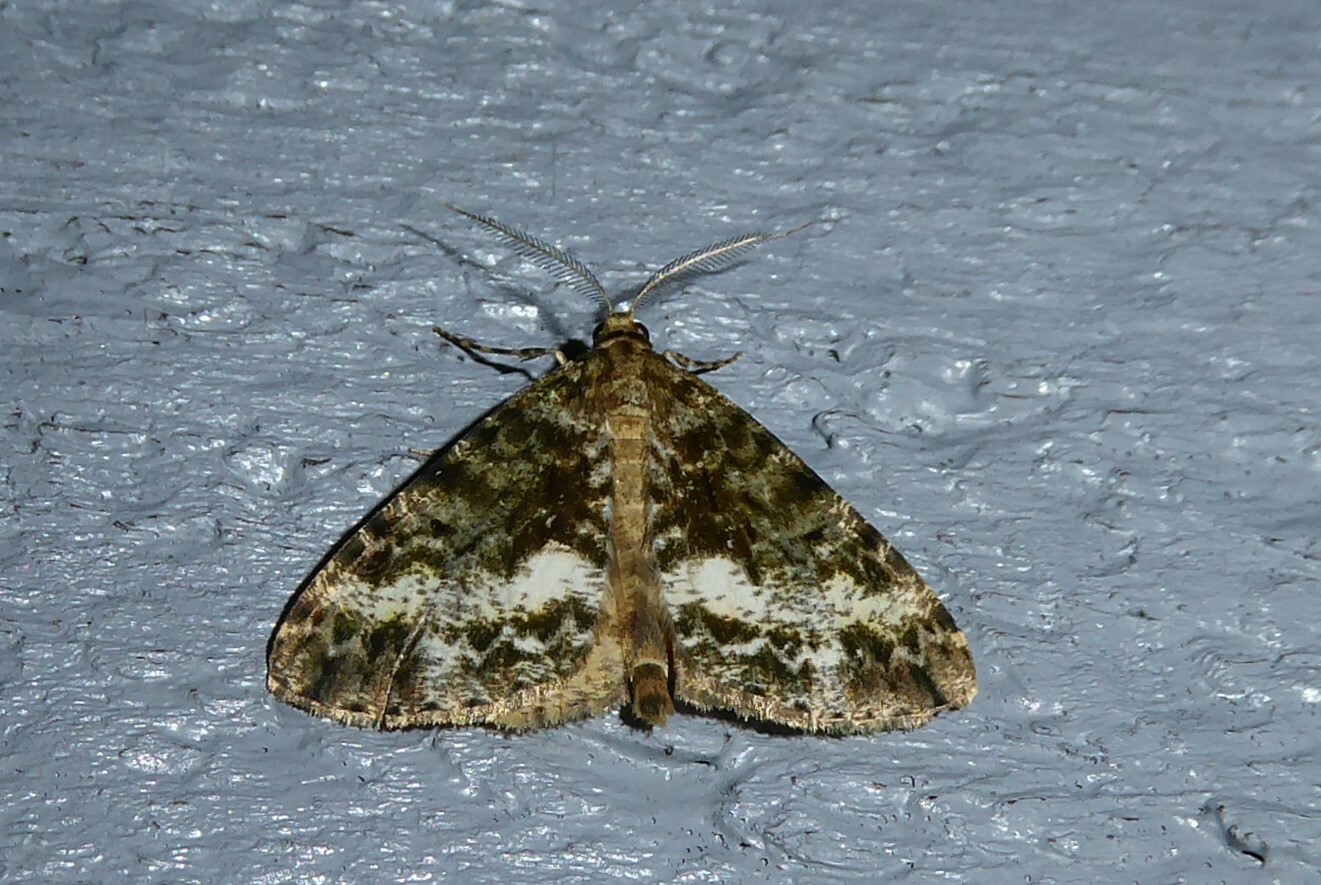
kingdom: Animalia
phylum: Arthropoda
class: Insecta
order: Lepidoptera
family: Geometridae
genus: Pseudocoremia
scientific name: Pseudocoremia lactiflua
